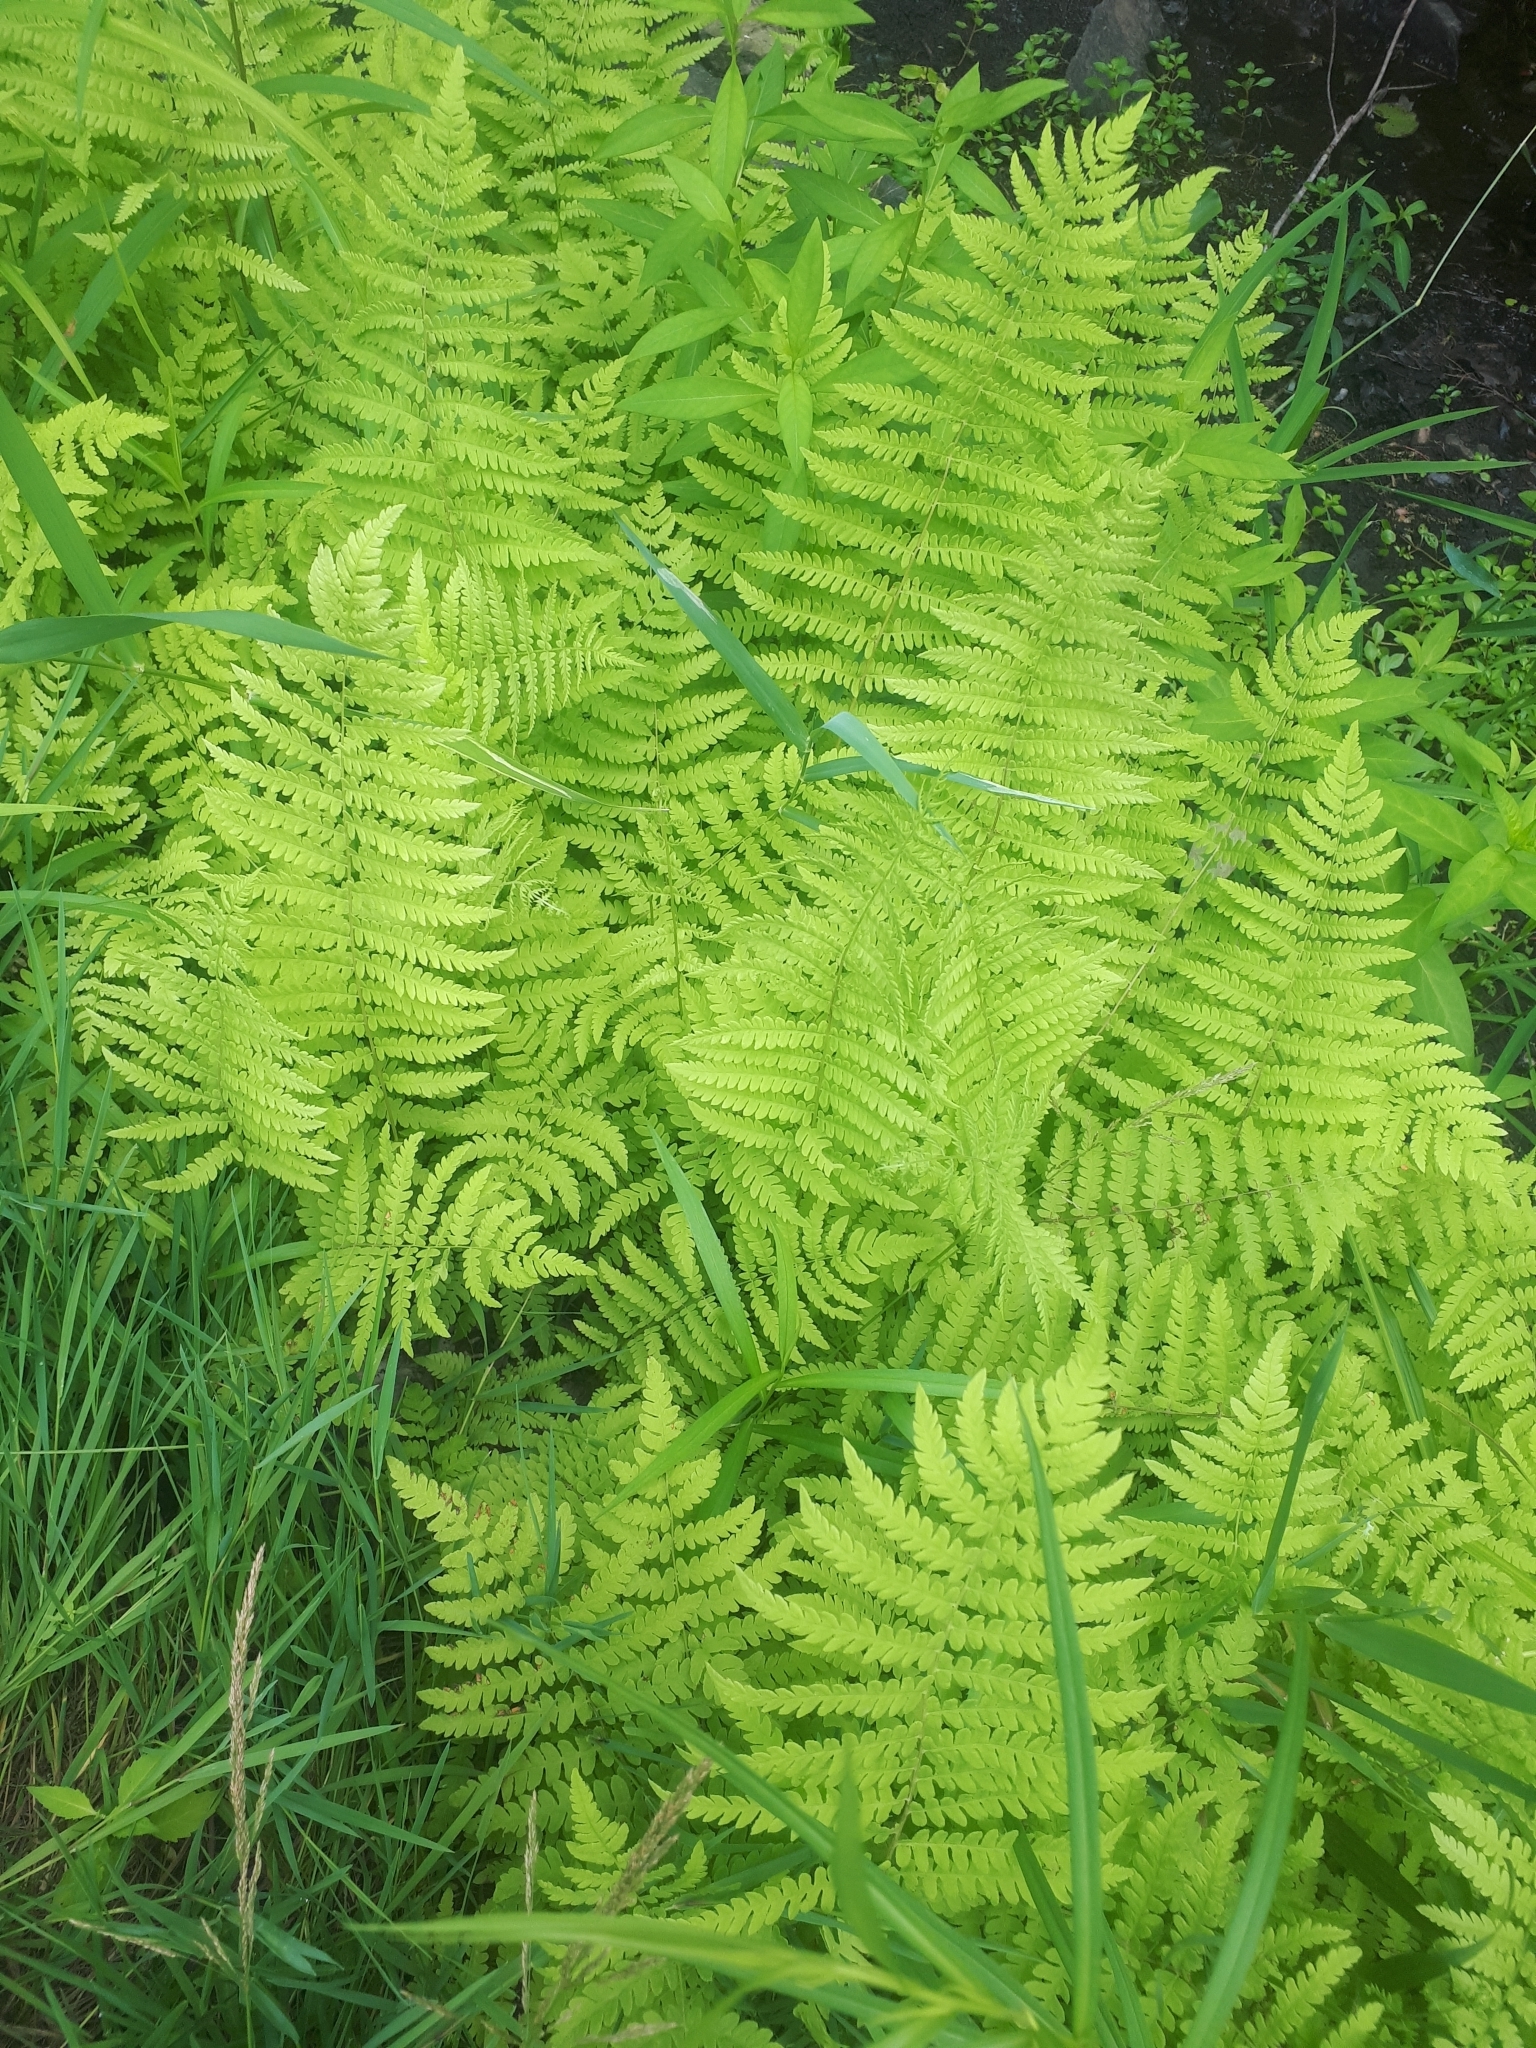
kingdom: Plantae
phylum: Tracheophyta
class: Polypodiopsida
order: Polypodiales
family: Thelypteridaceae
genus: Thelypteris
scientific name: Thelypteris palustris
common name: Marsh fern
